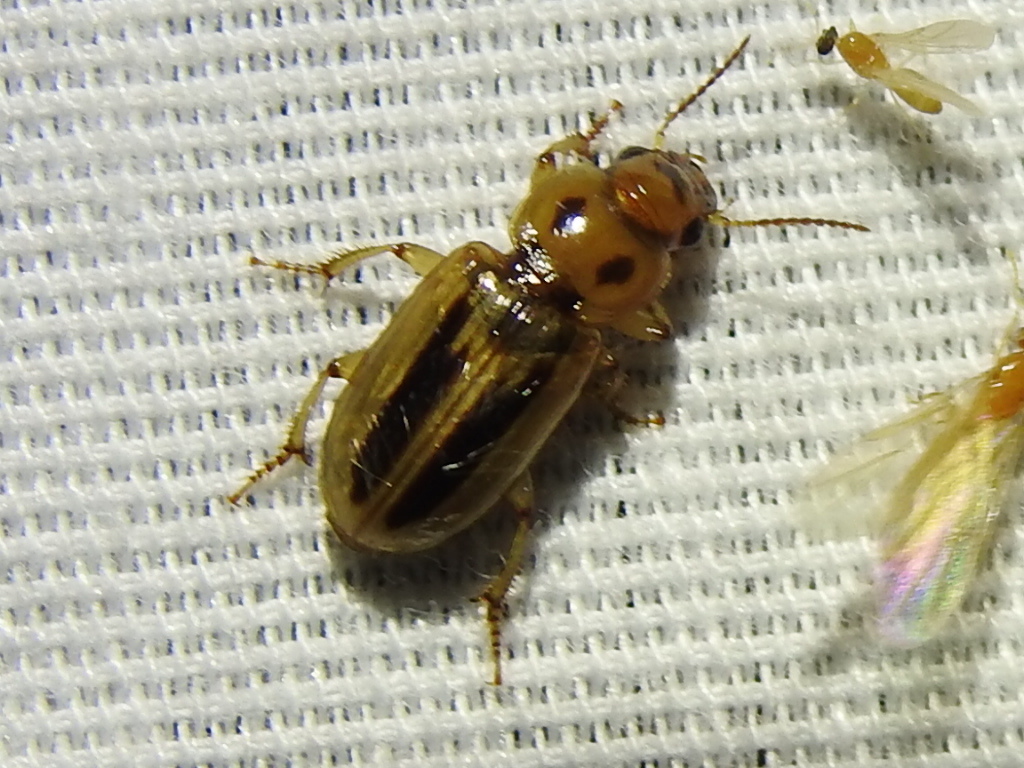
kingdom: Animalia
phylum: Arthropoda
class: Insecta
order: Coleoptera
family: Carabidae
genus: Stenolophus
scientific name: Stenolophus lineola
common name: Lined stenolophus
